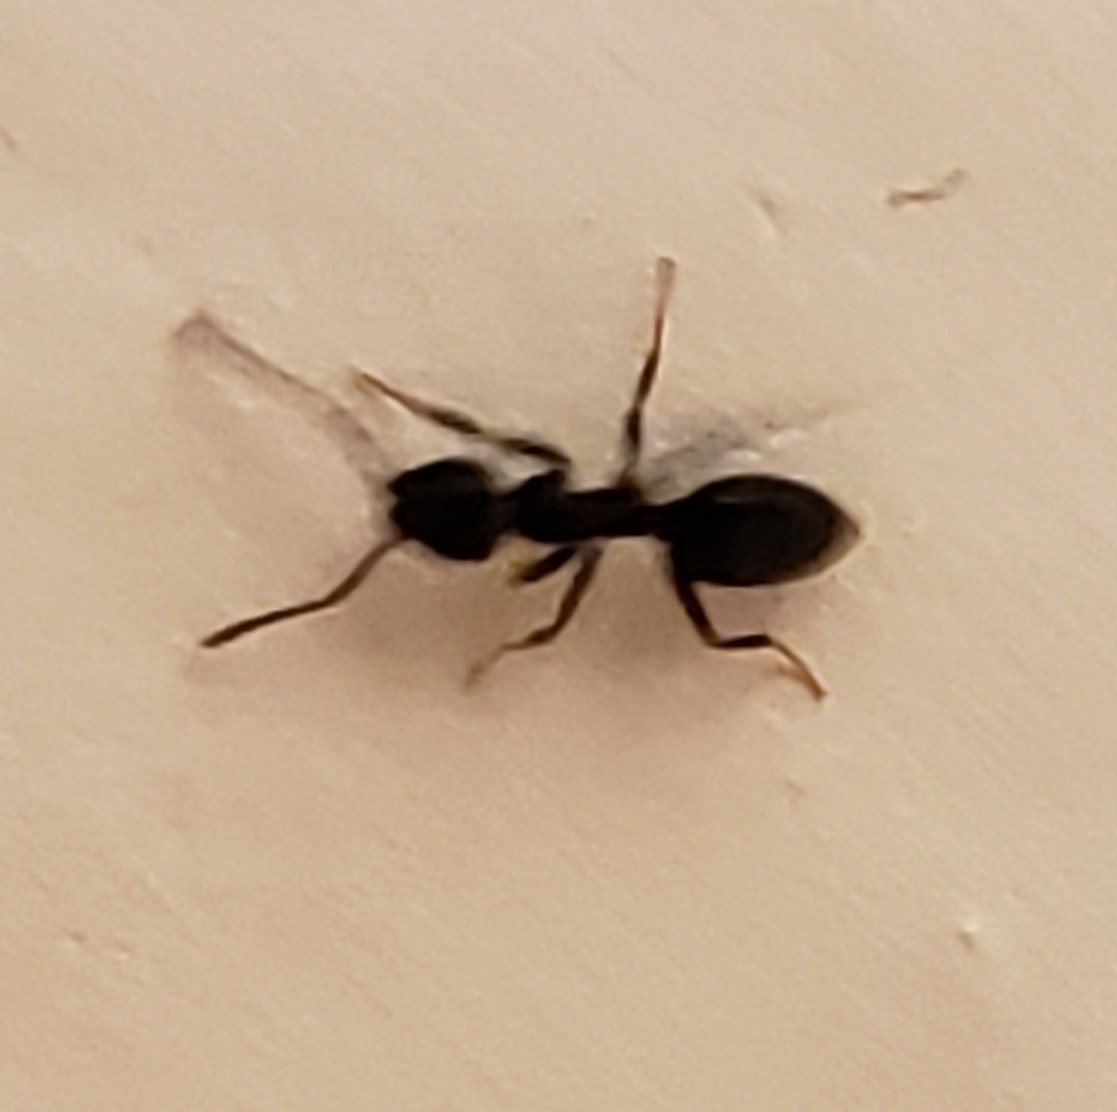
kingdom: Animalia
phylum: Arthropoda
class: Insecta
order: Hymenoptera
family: Formicidae
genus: Tapinoma
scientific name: Tapinoma sessile
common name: Odorous house ant
